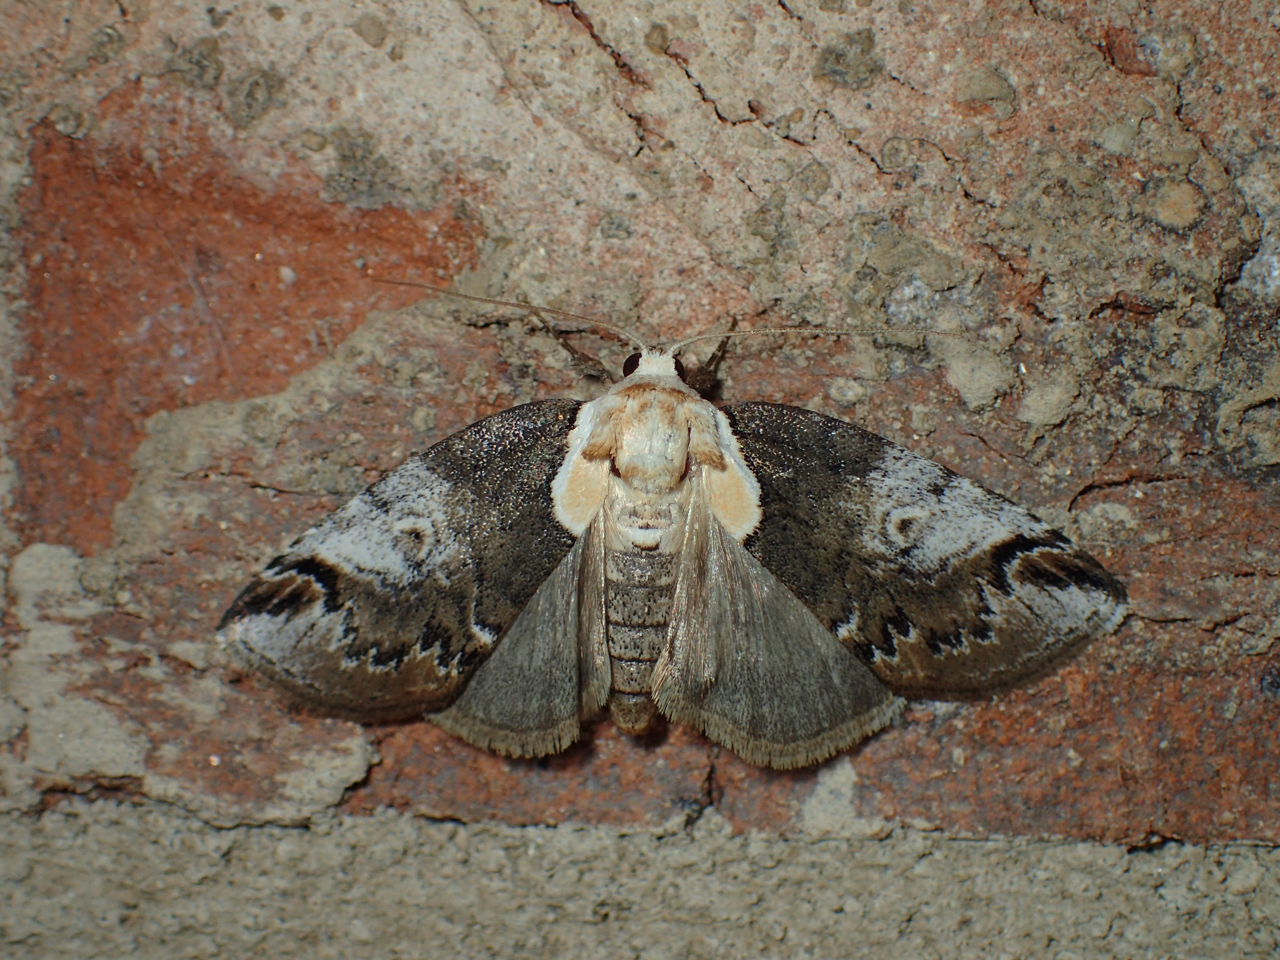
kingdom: Animalia
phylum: Arthropoda
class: Insecta
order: Lepidoptera
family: Nolidae
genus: Baileya
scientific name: Baileya ophthalmica
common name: Eyed baileya moth
